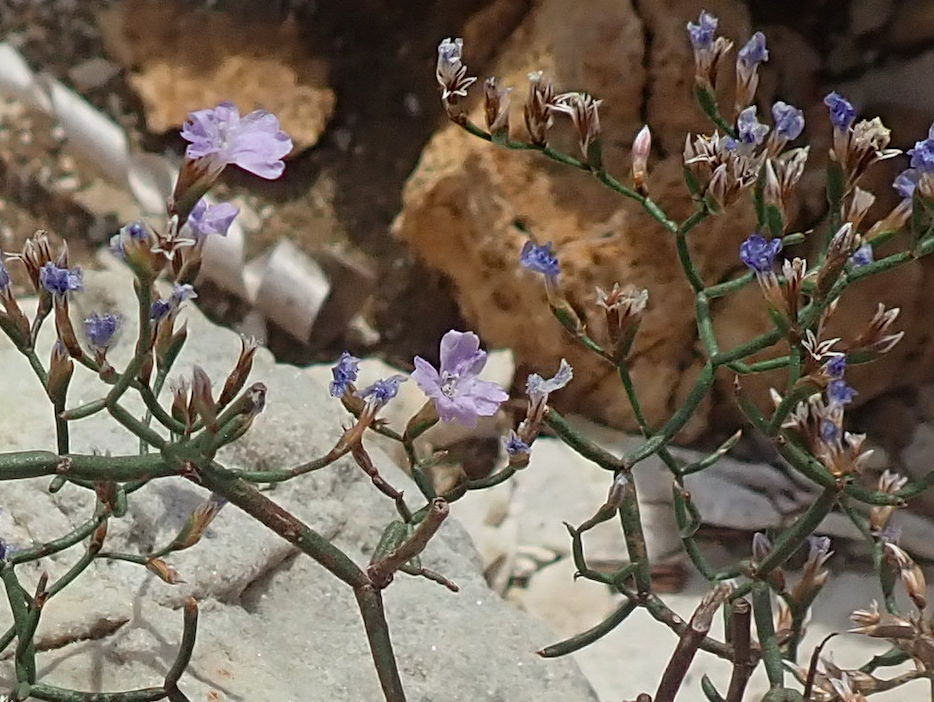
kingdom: Plantae
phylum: Tracheophyta
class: Magnoliopsida
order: Caryophyllales
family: Plumbaginaceae
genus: Limonium
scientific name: Limonium dictyophorum
